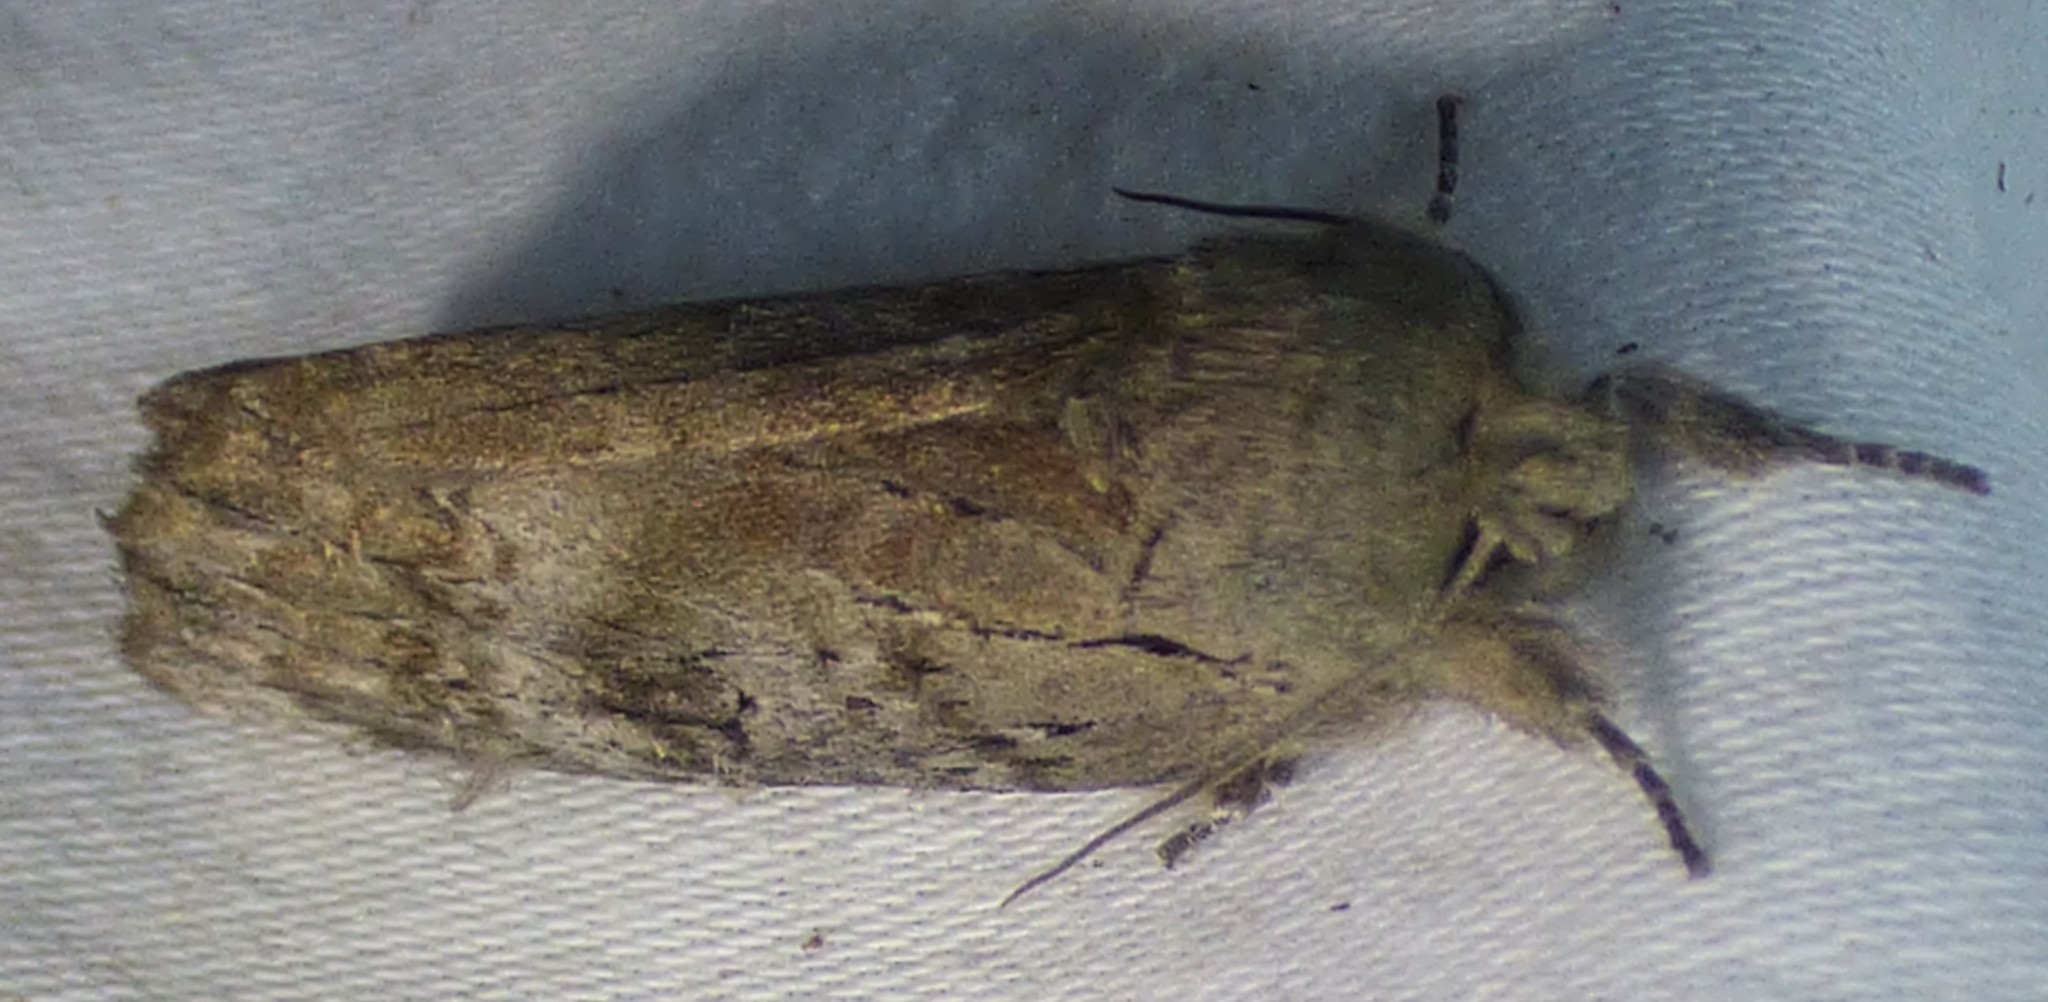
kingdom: Animalia
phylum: Arthropoda
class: Insecta
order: Lepidoptera
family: Notodontidae
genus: Schizura
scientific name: Schizura
